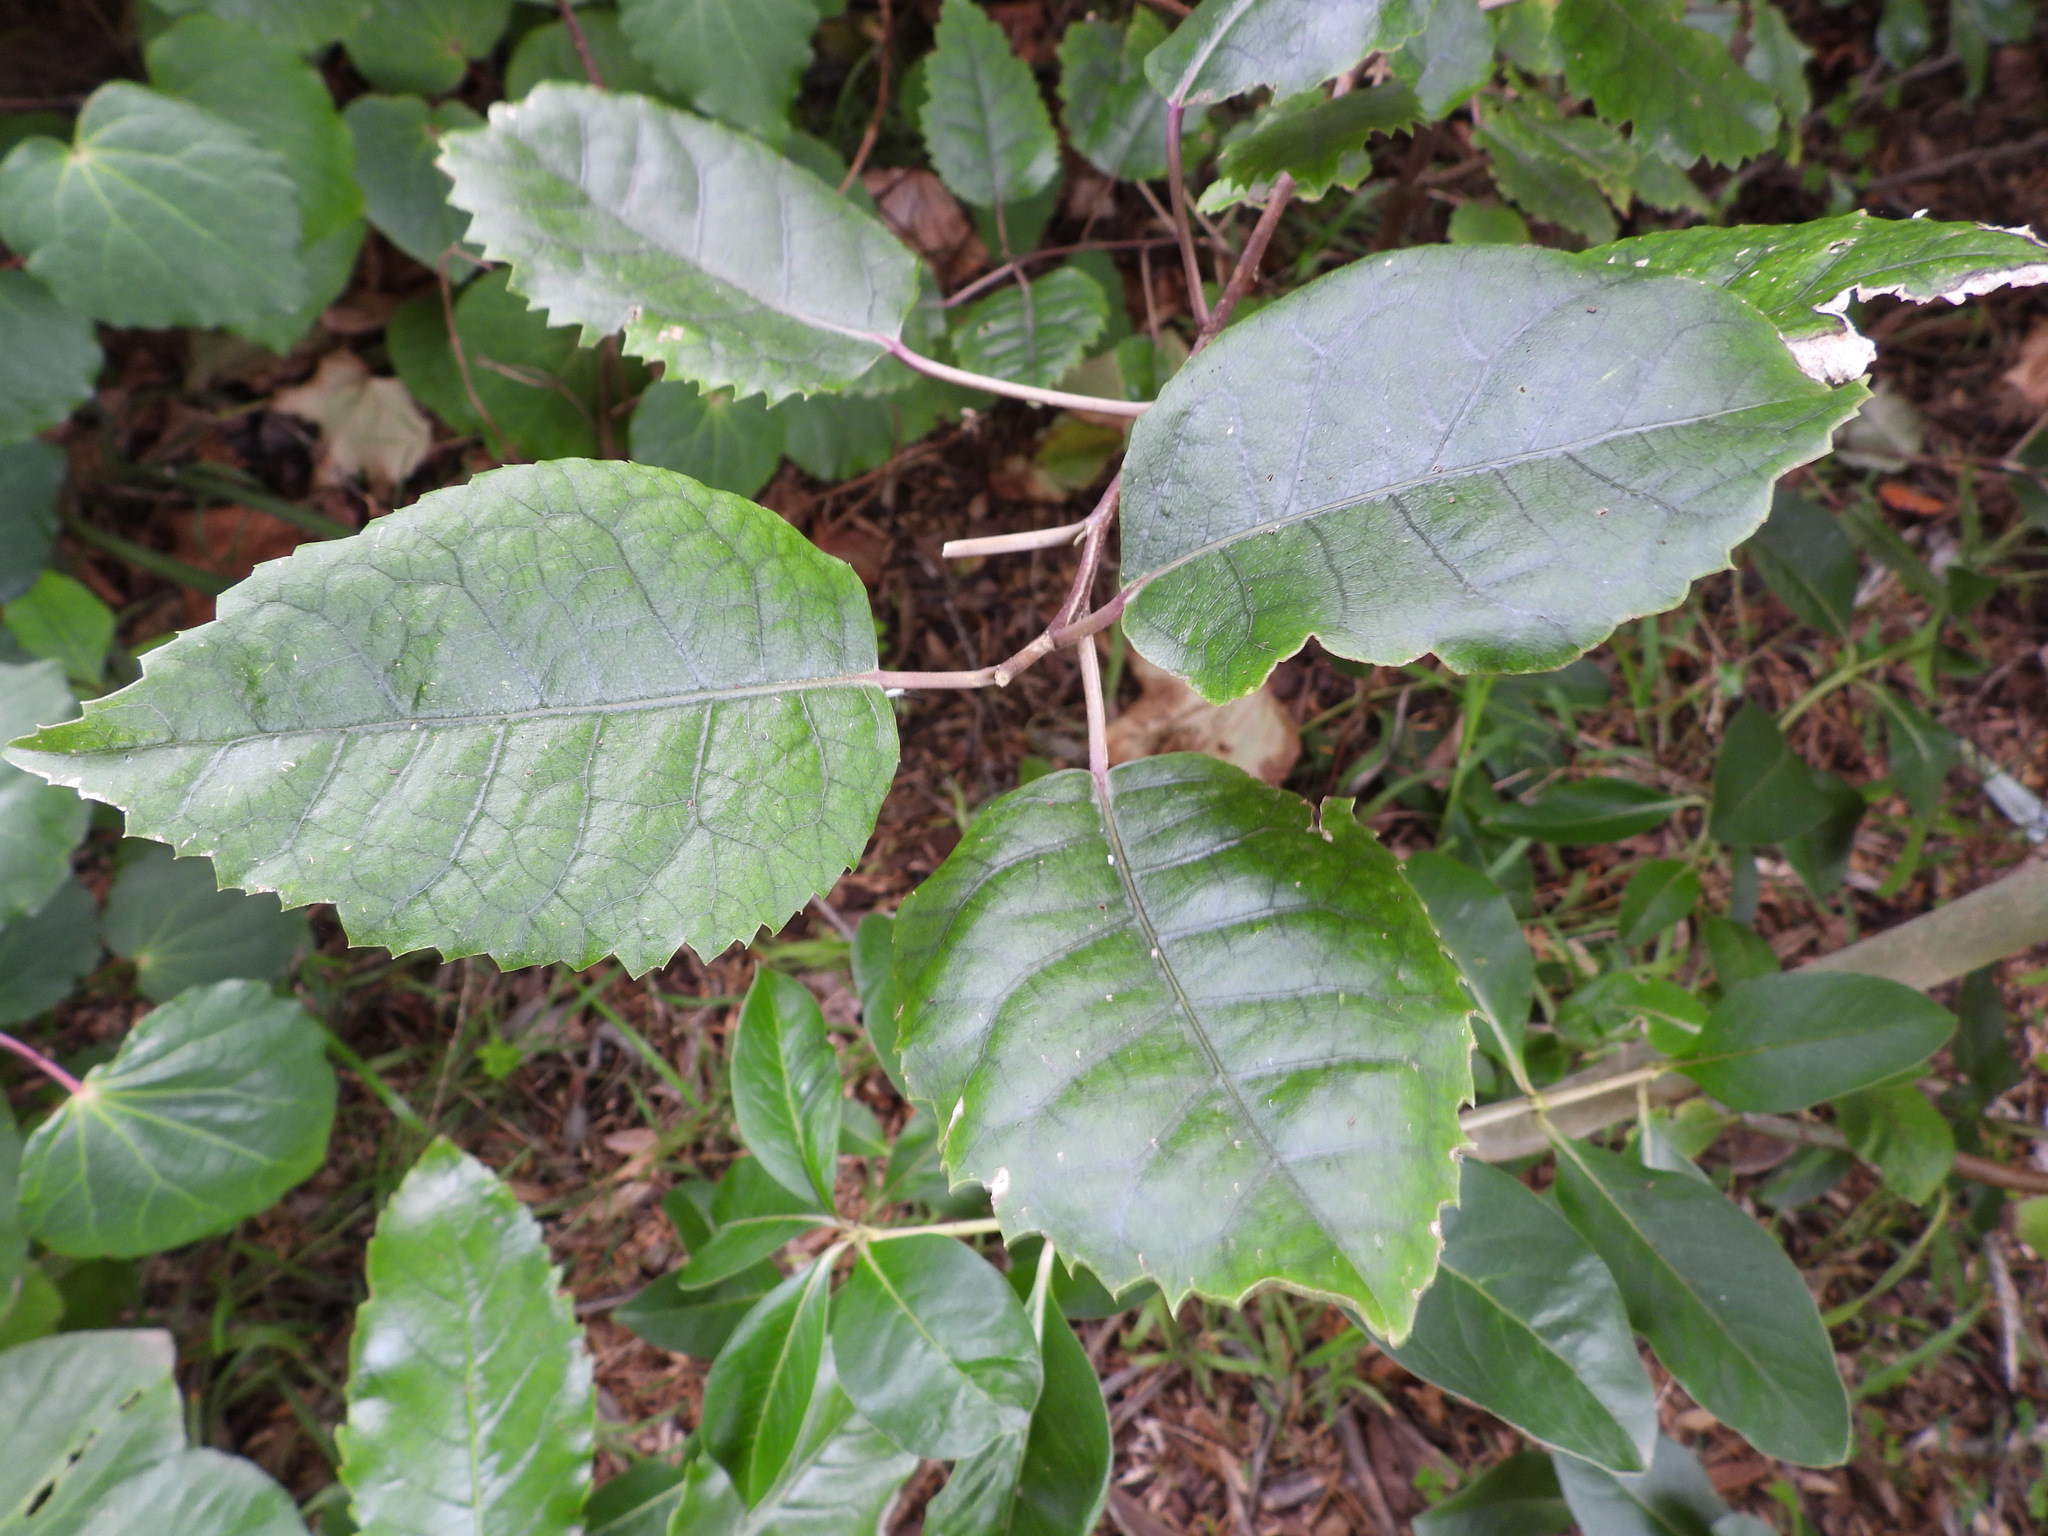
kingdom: Plantae
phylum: Tracheophyta
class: Magnoliopsida
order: Malvales
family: Malvaceae
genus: Hoheria
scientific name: Hoheria populnea
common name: Lacebark
